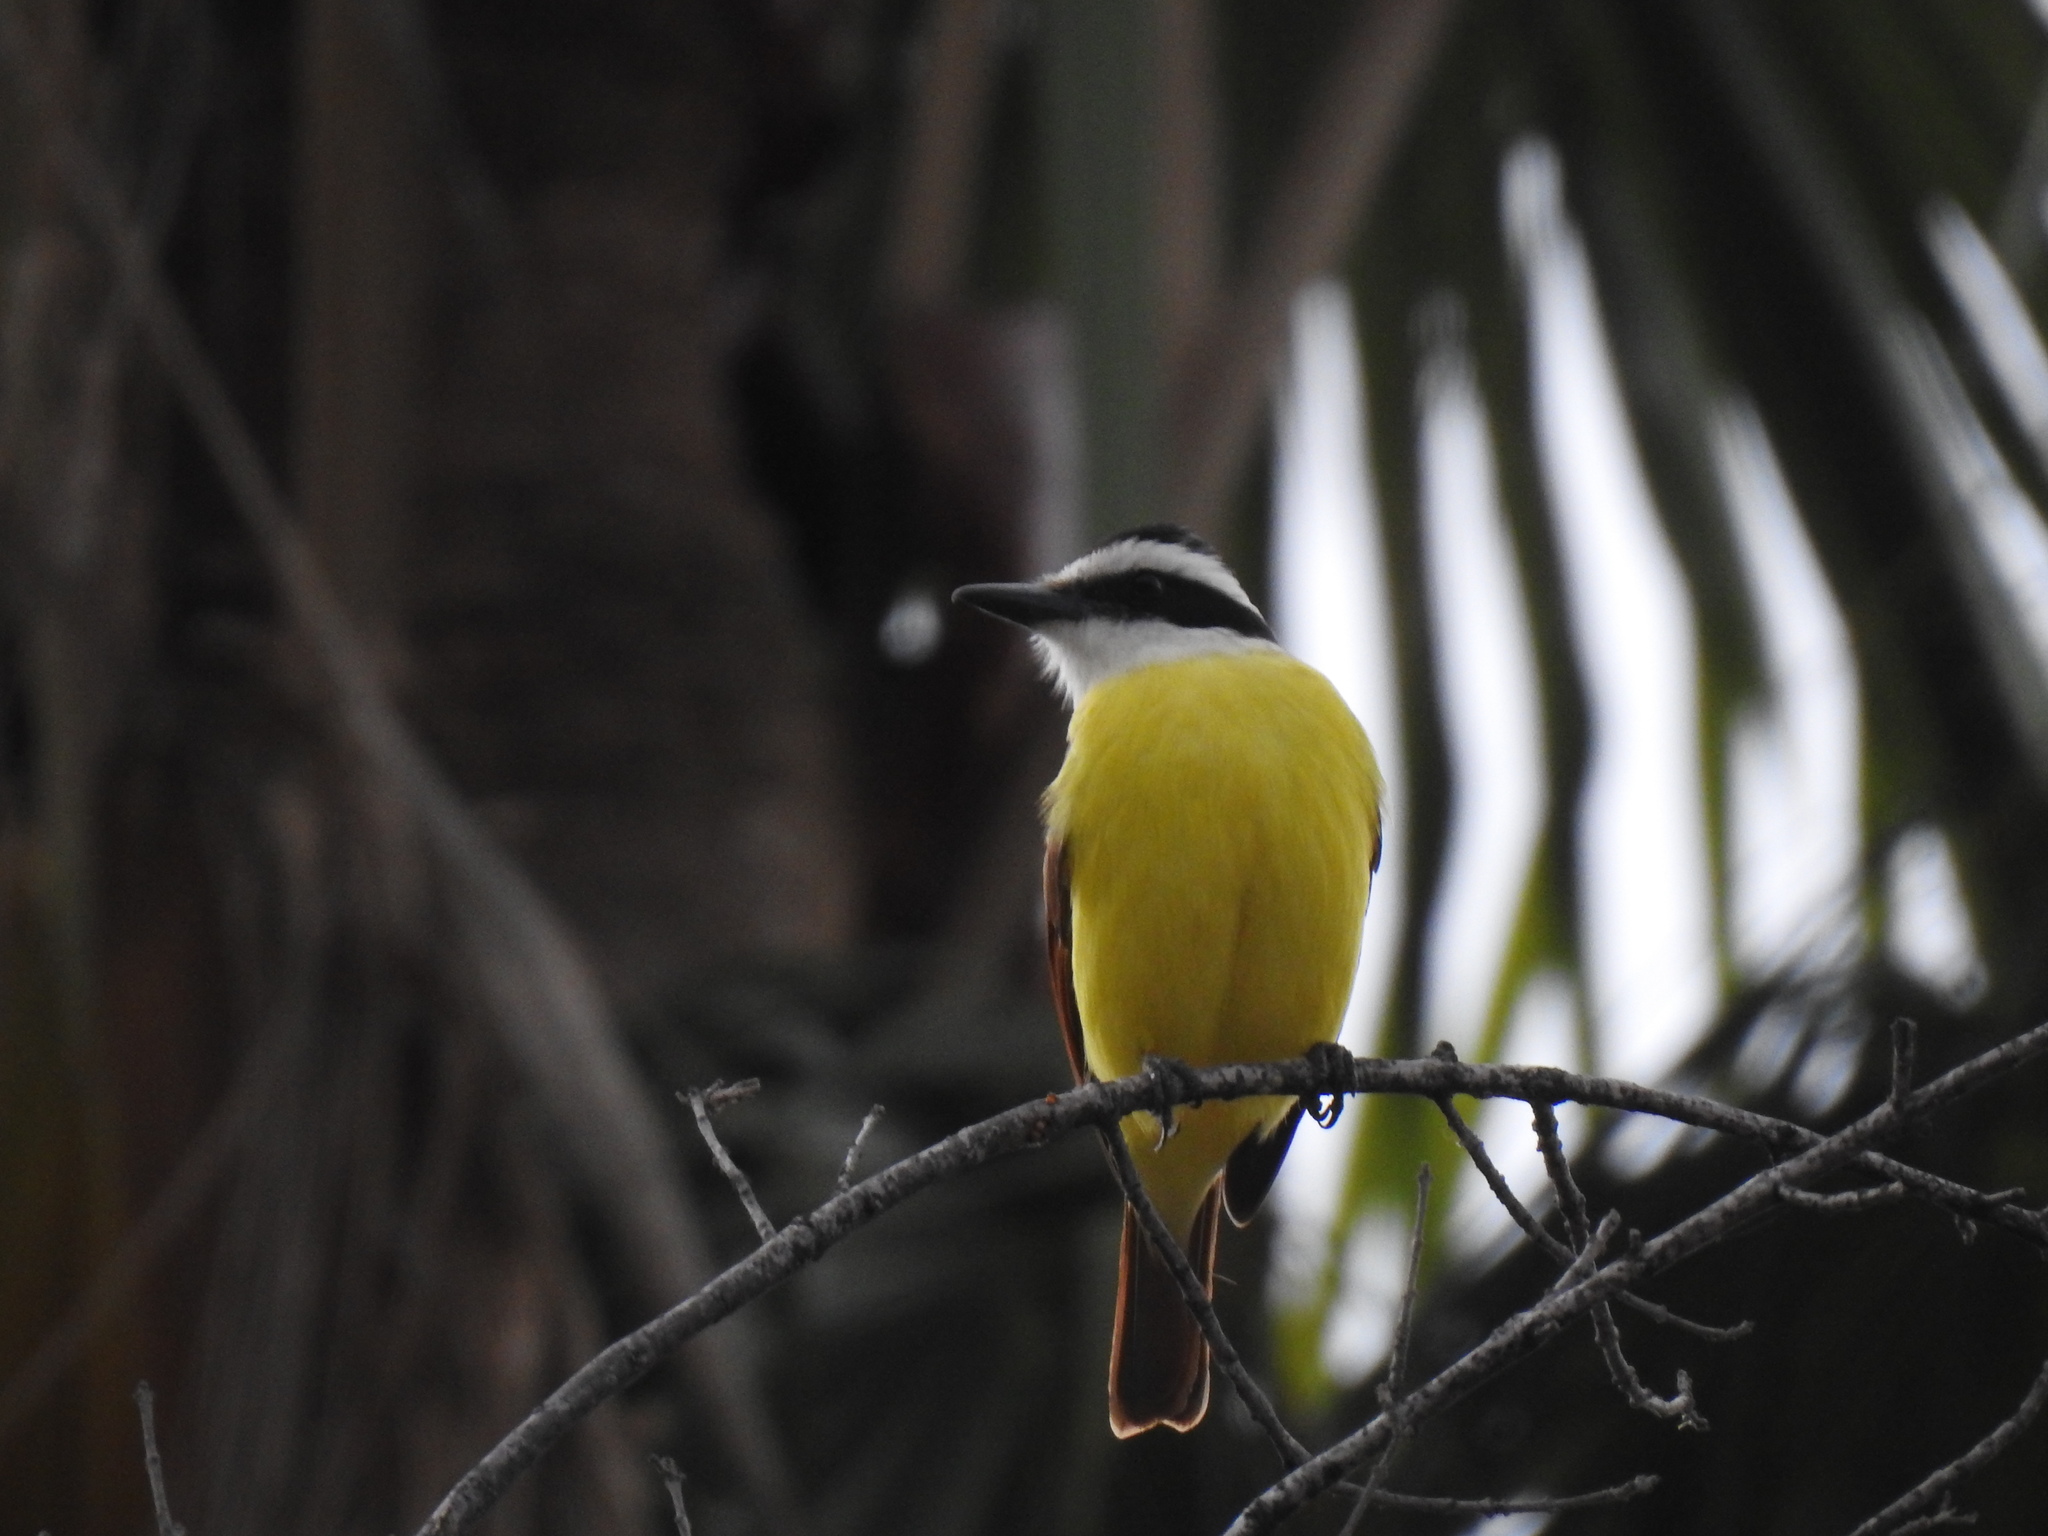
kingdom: Animalia
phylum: Chordata
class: Aves
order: Passeriformes
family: Tyrannidae
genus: Pitangus
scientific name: Pitangus sulphuratus
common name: Great kiskadee
